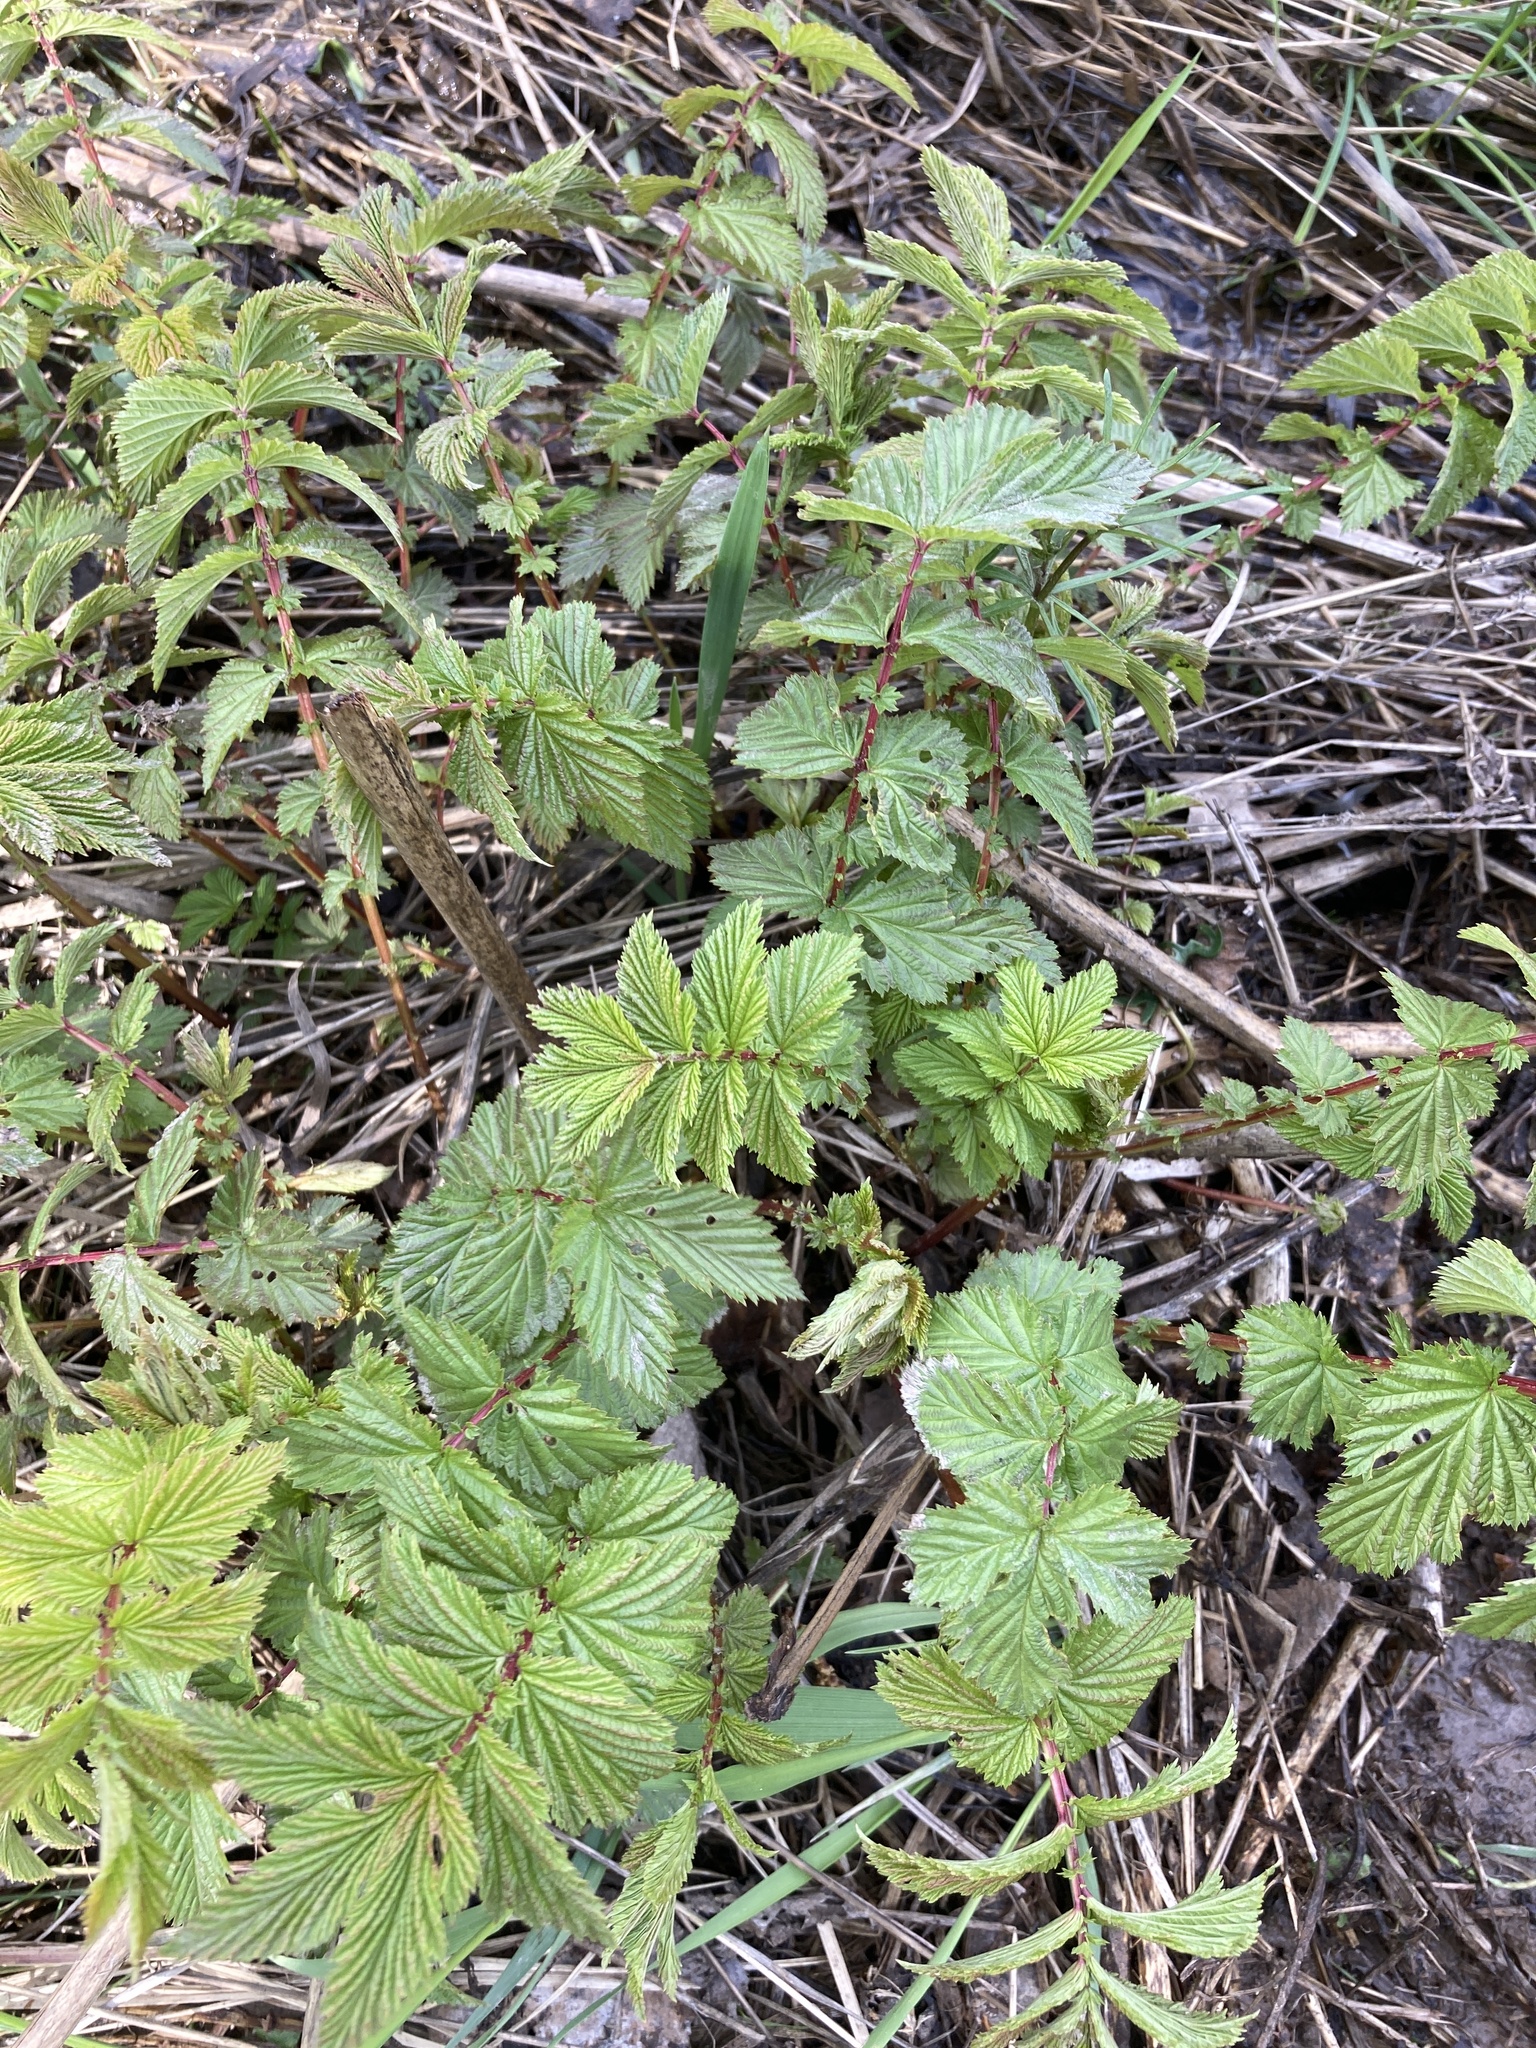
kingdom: Plantae
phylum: Tracheophyta
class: Magnoliopsida
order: Rosales
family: Rosaceae
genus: Filipendula
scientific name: Filipendula ulmaria
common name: Meadowsweet
